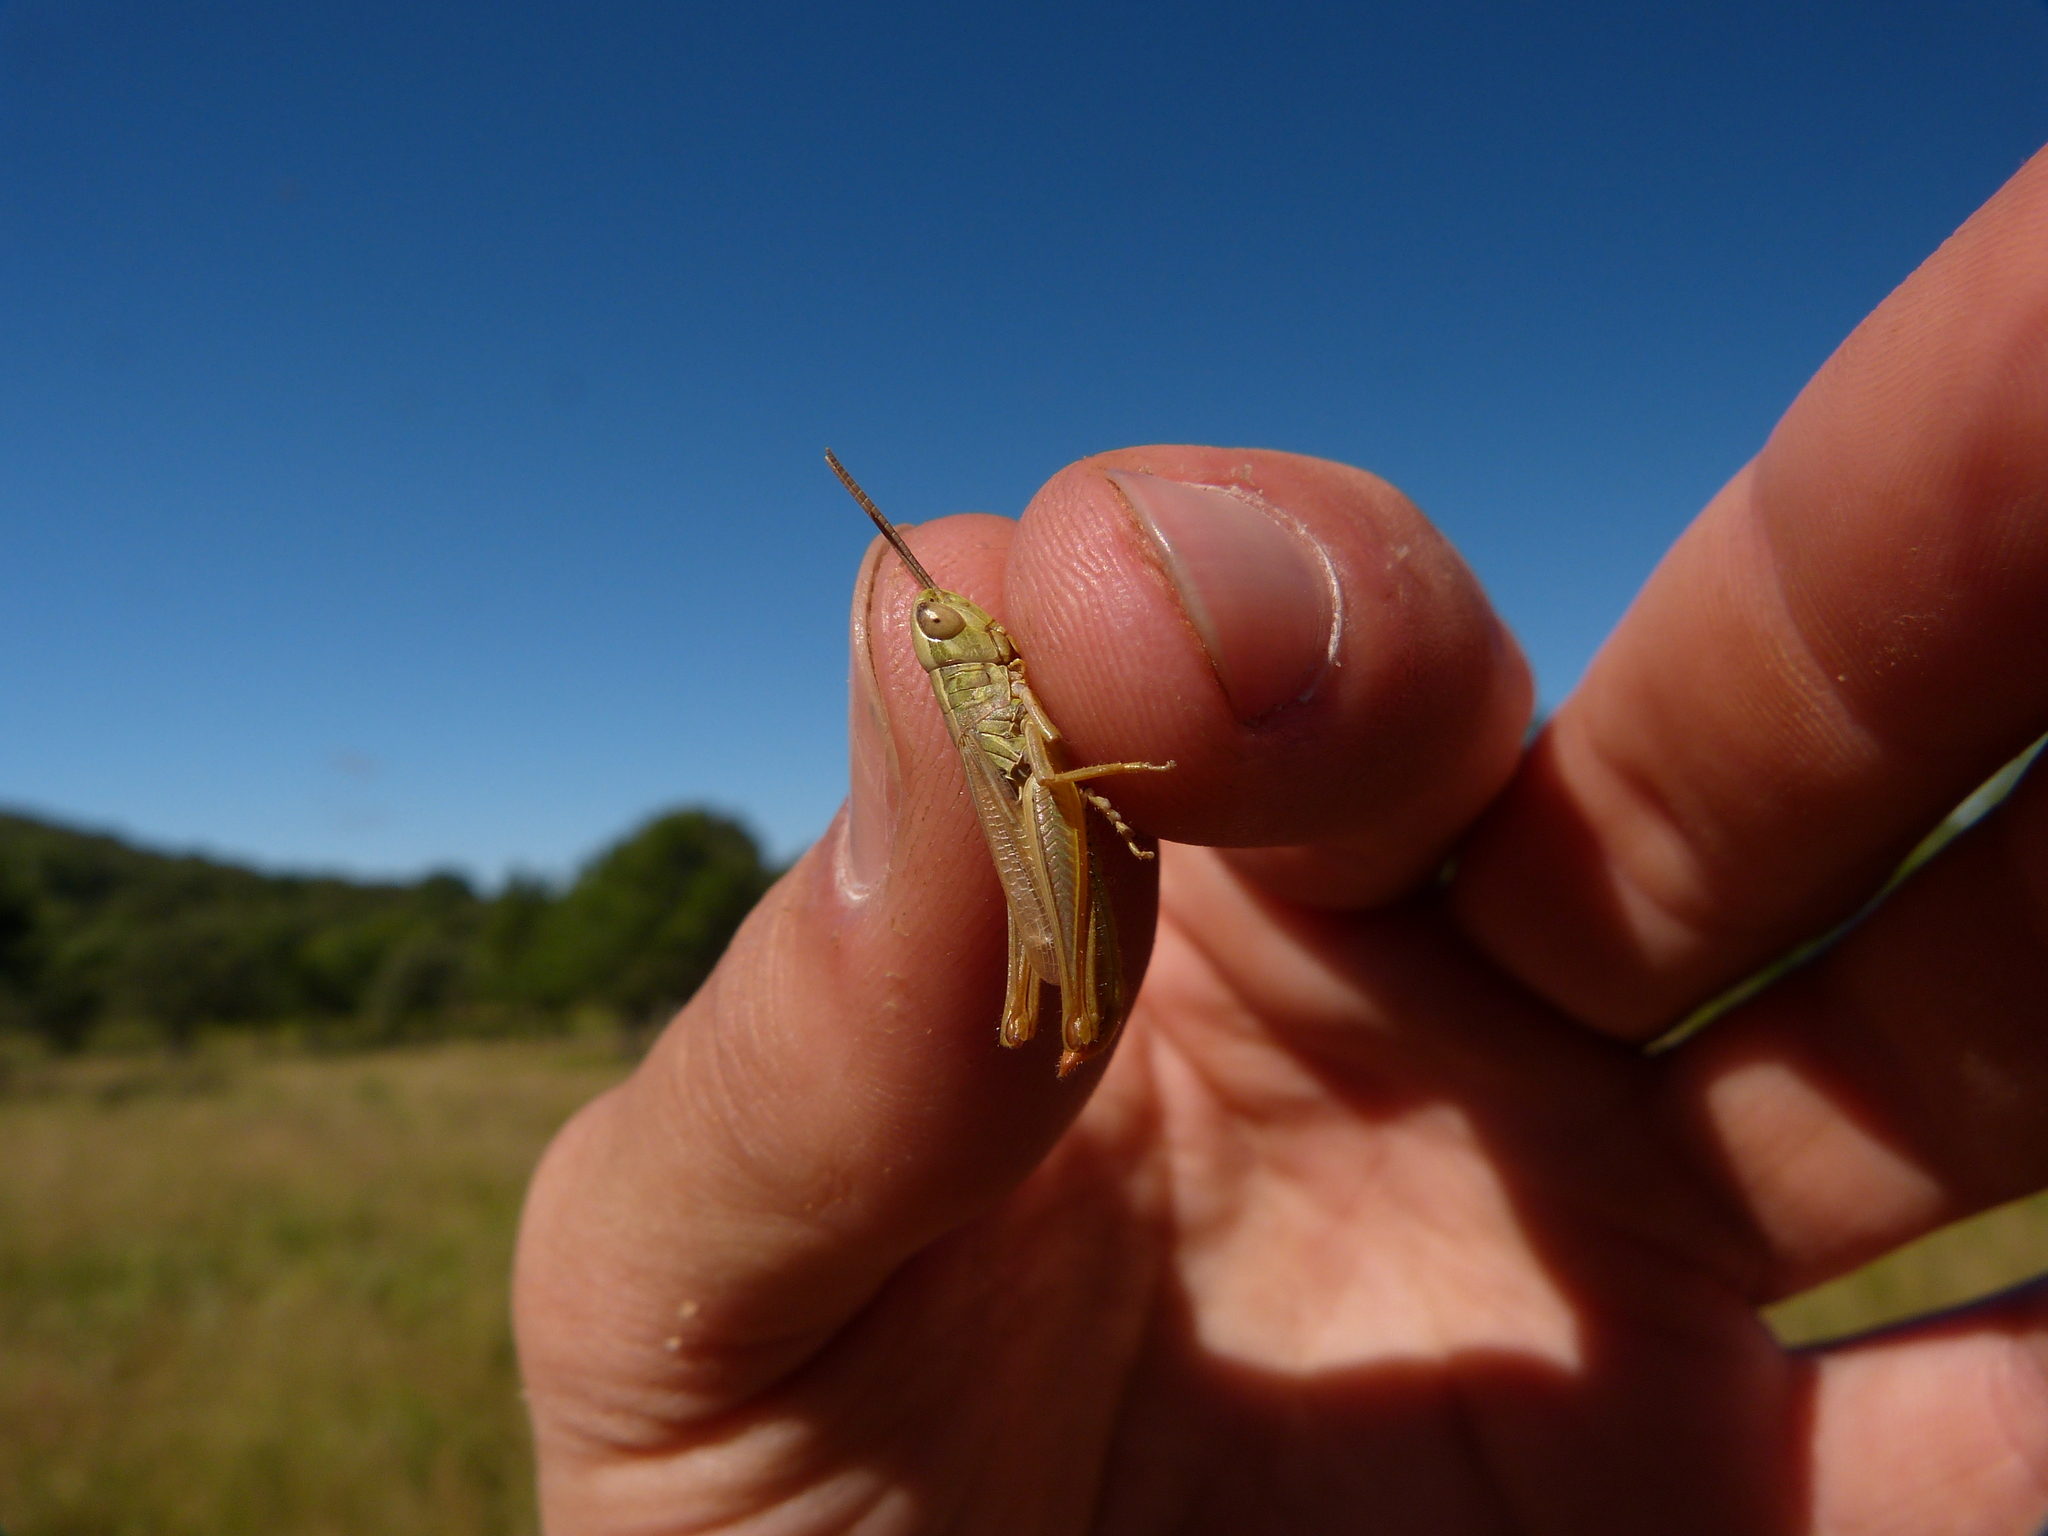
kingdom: Animalia
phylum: Arthropoda
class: Insecta
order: Orthoptera
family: Acrididae
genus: Euchorthippus
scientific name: Euchorthippus declivus
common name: Common straw grasshopper
